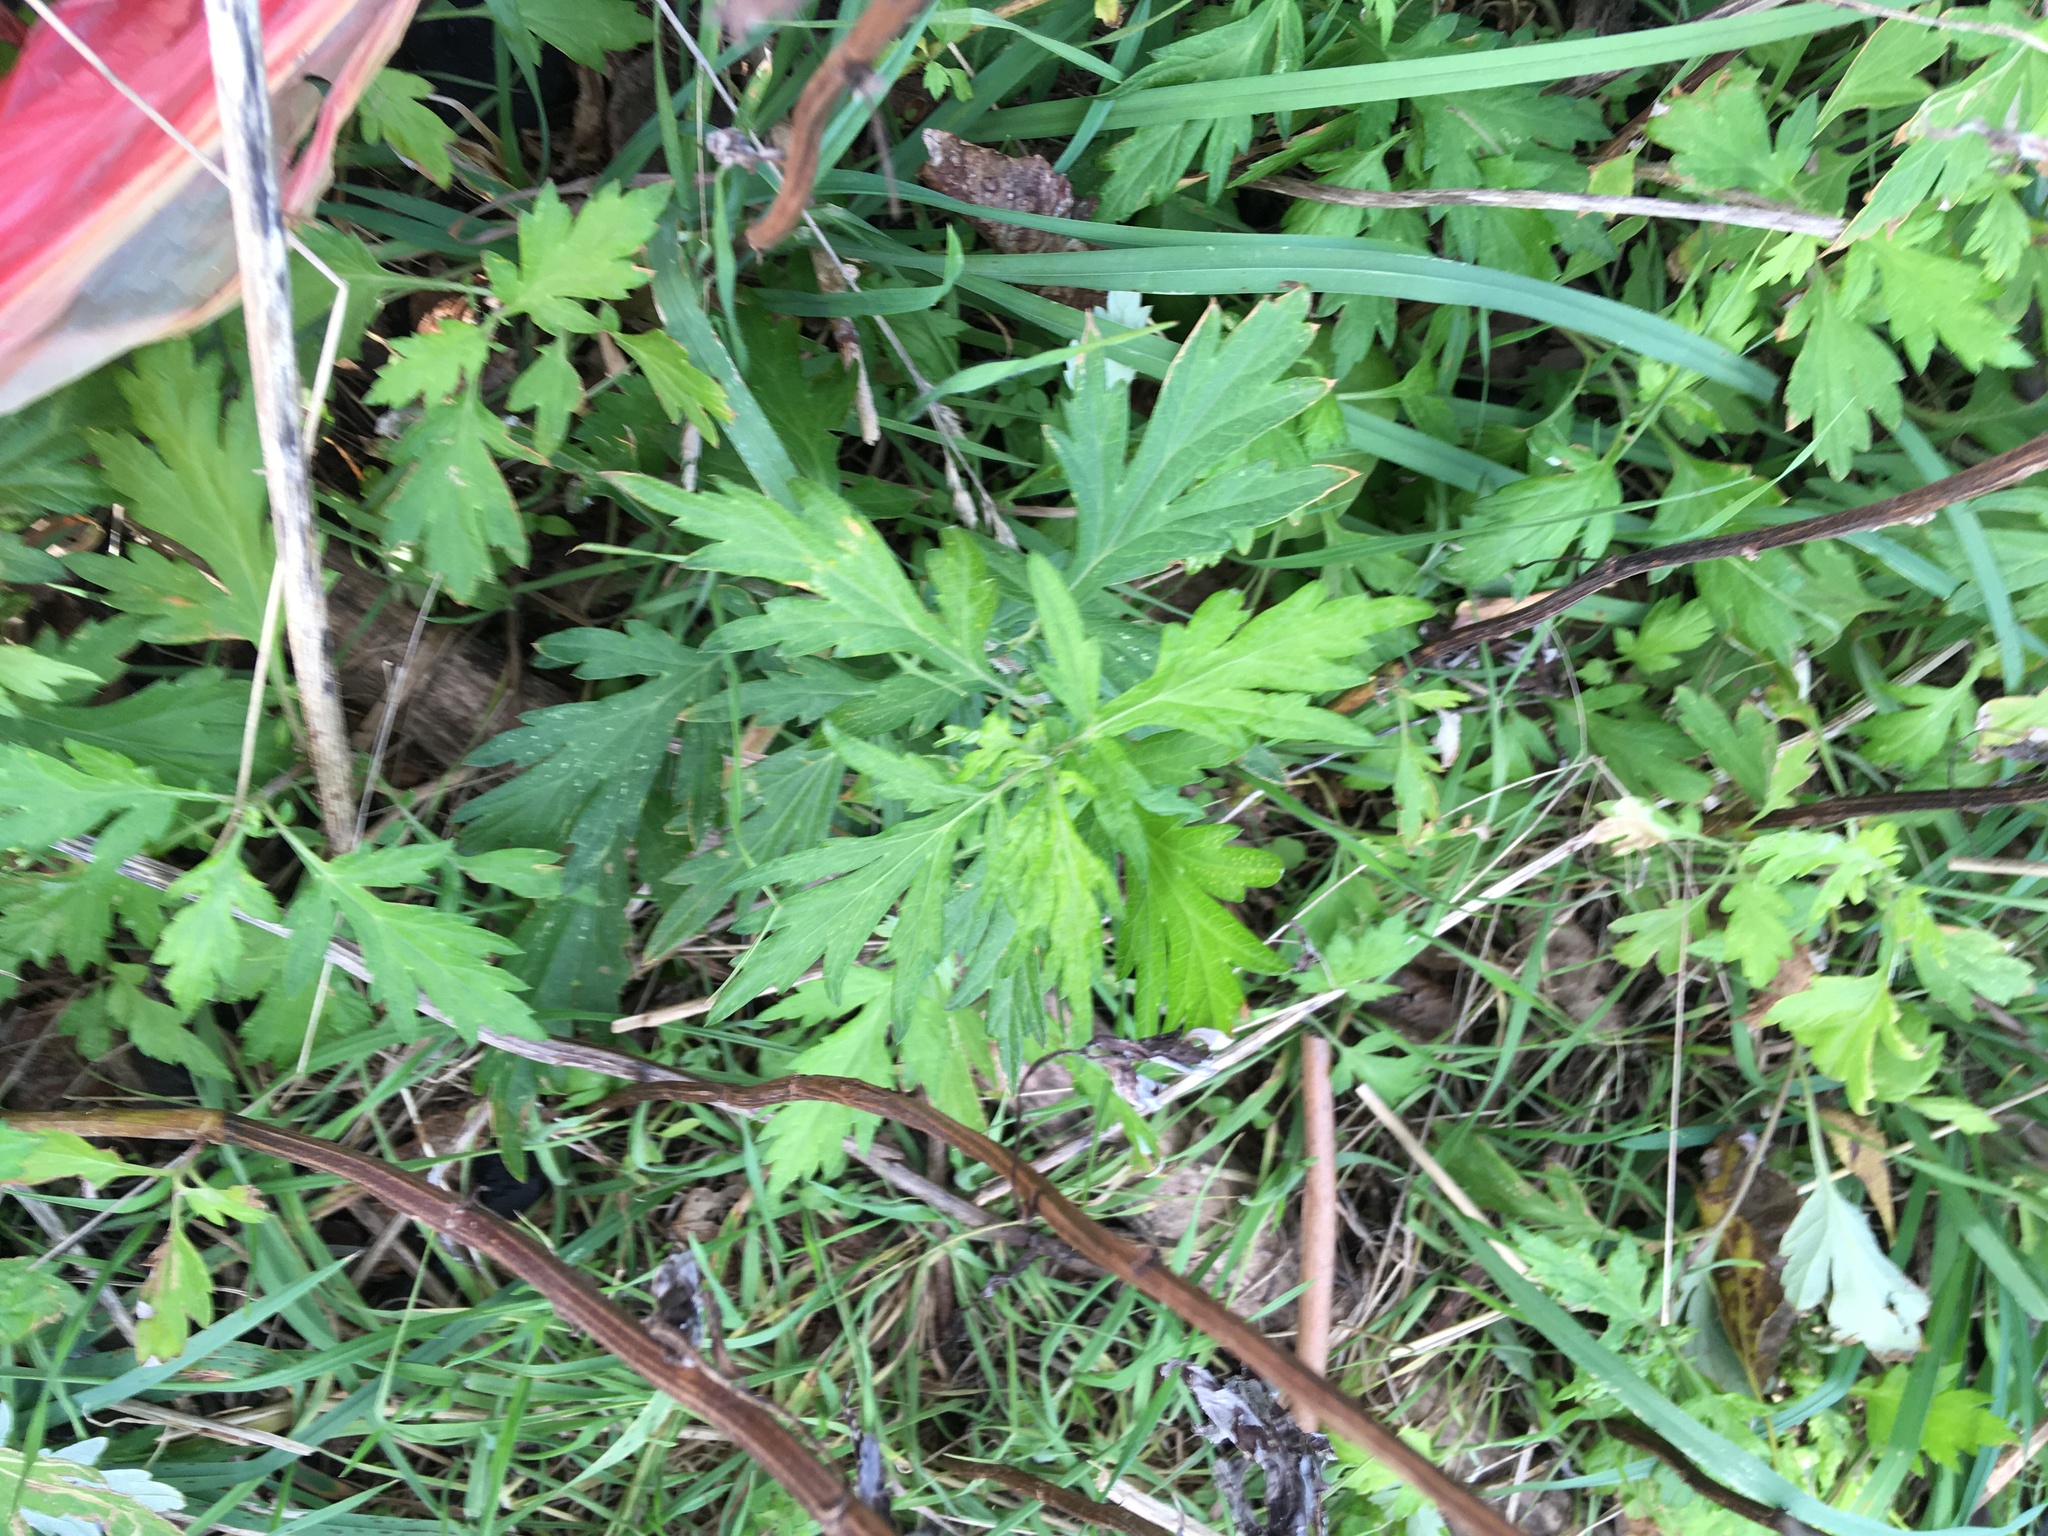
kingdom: Plantae
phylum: Tracheophyta
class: Magnoliopsida
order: Asterales
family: Asteraceae
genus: Artemisia
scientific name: Artemisia vulgaris
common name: Mugwort
